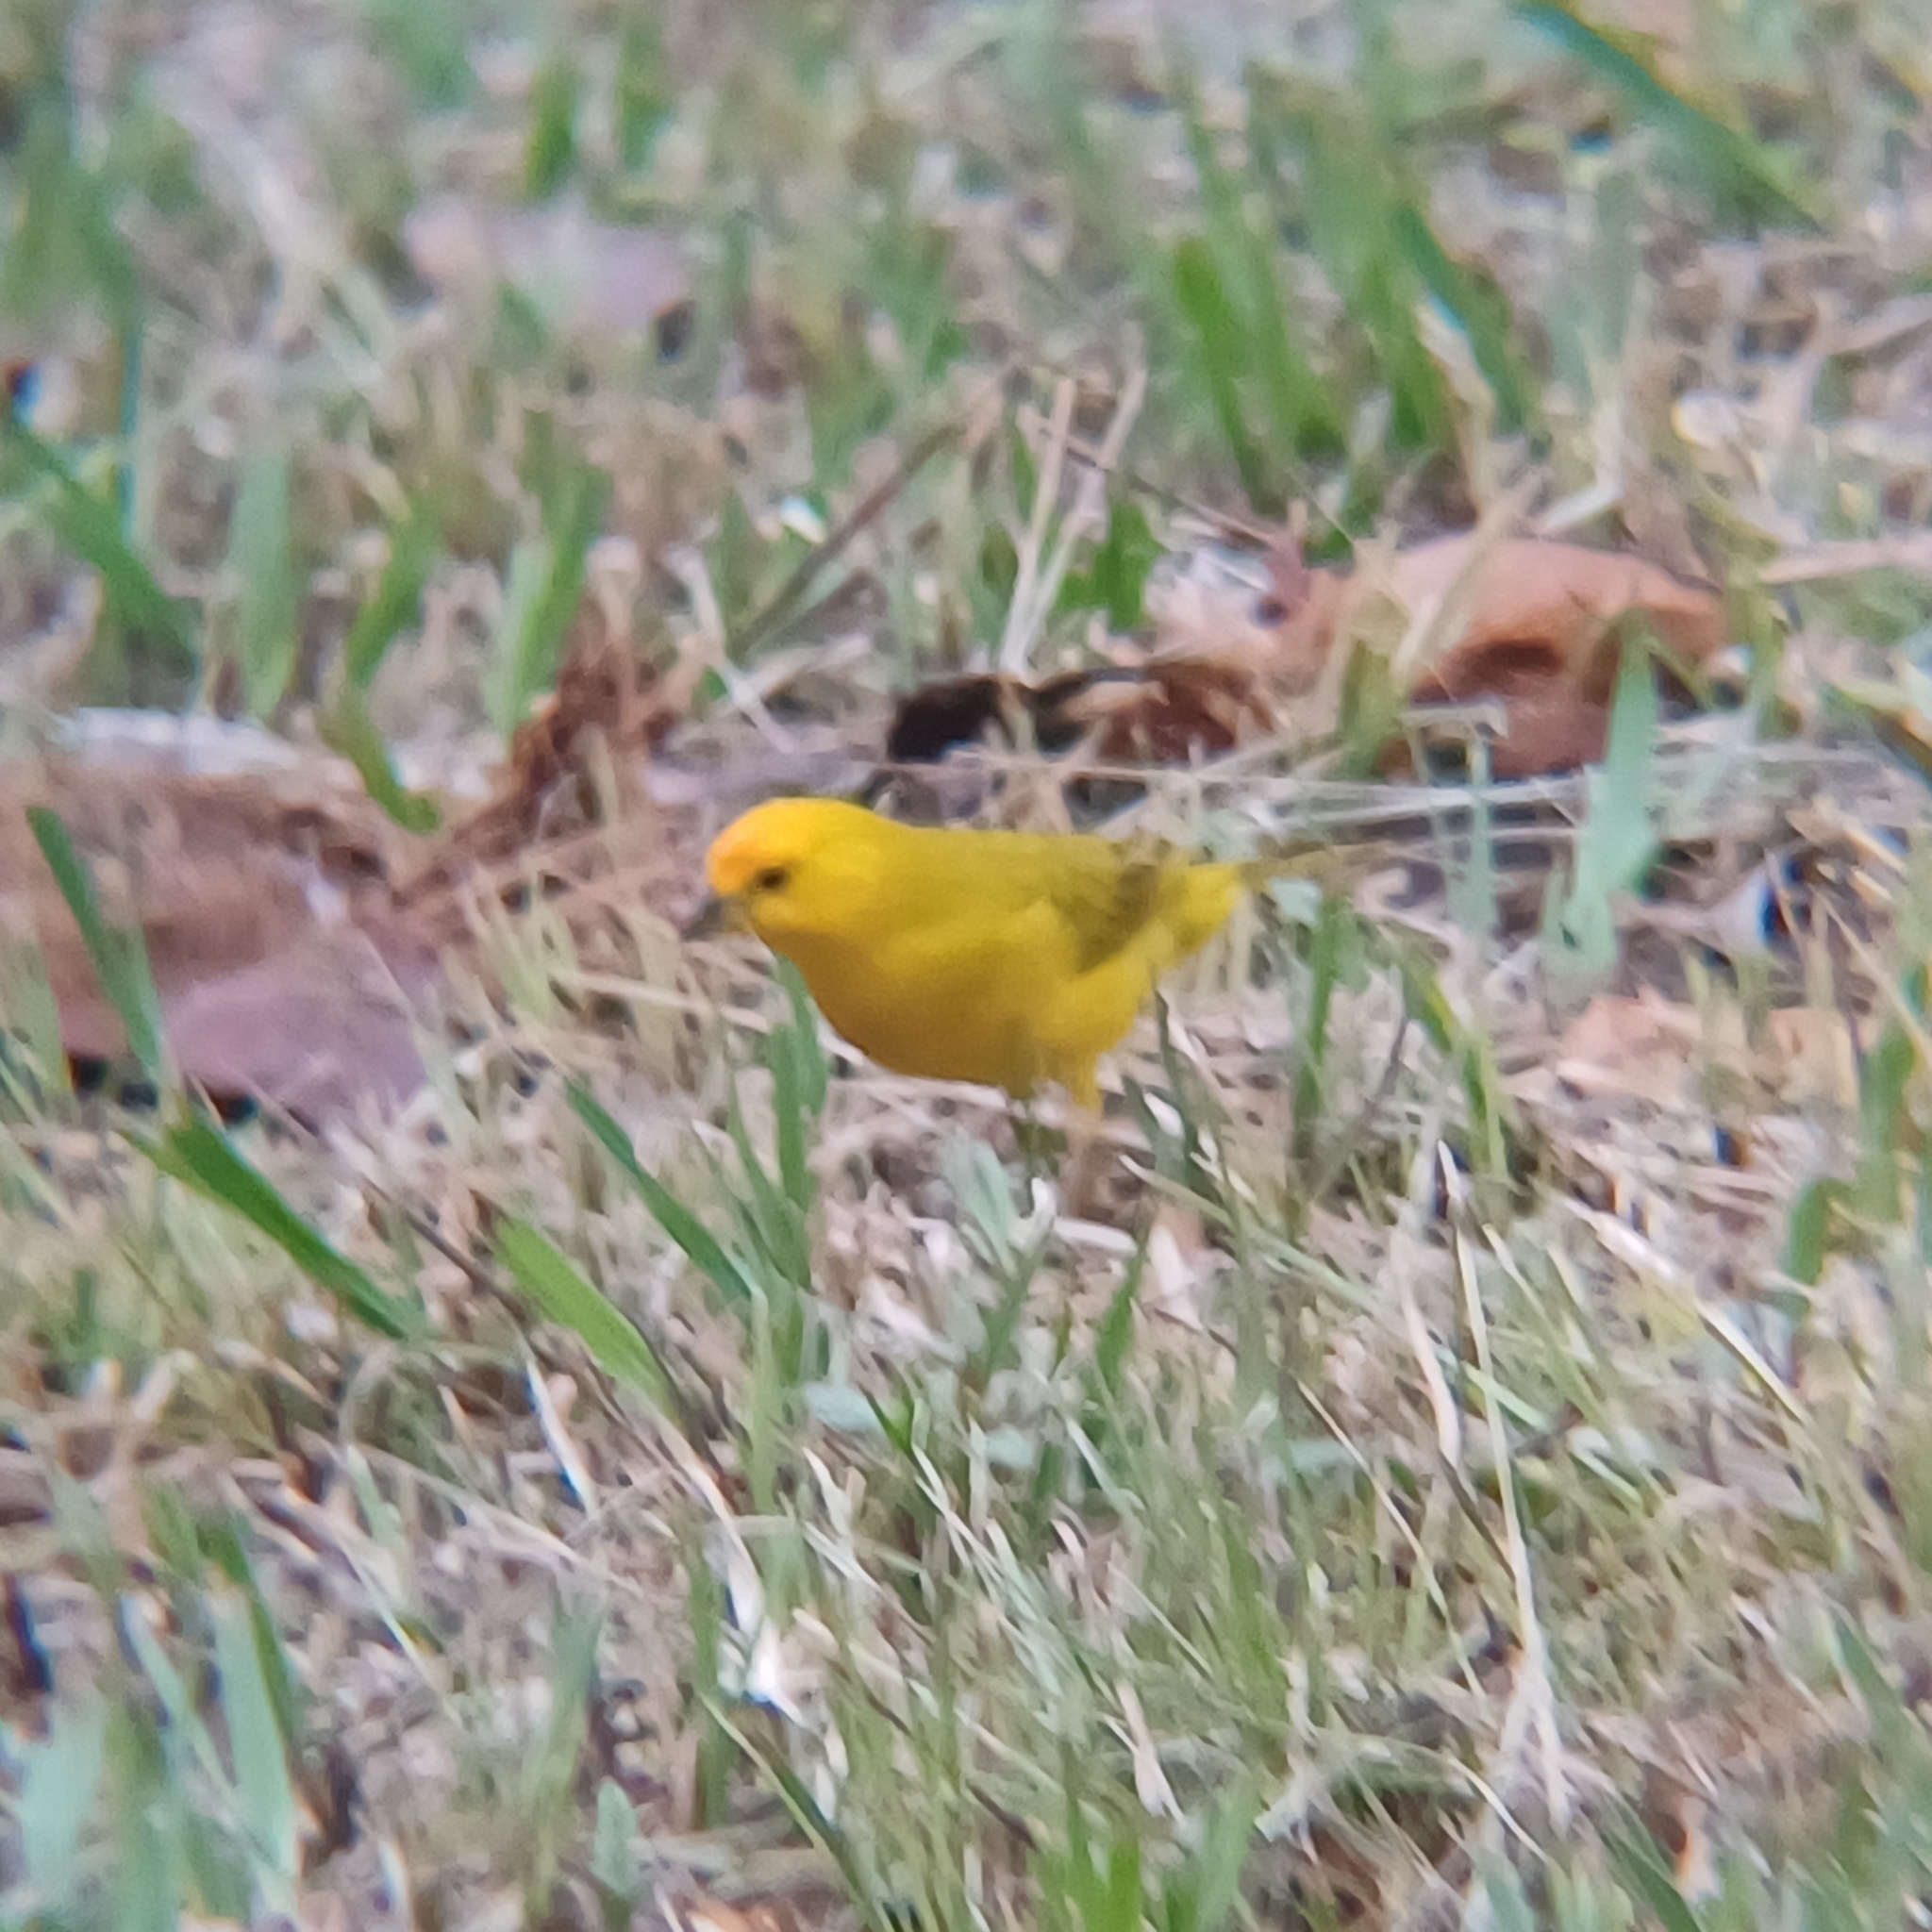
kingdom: Animalia
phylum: Chordata
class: Aves
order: Passeriformes
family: Thraupidae
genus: Sicalis
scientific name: Sicalis flaveola
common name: Saffron finch
